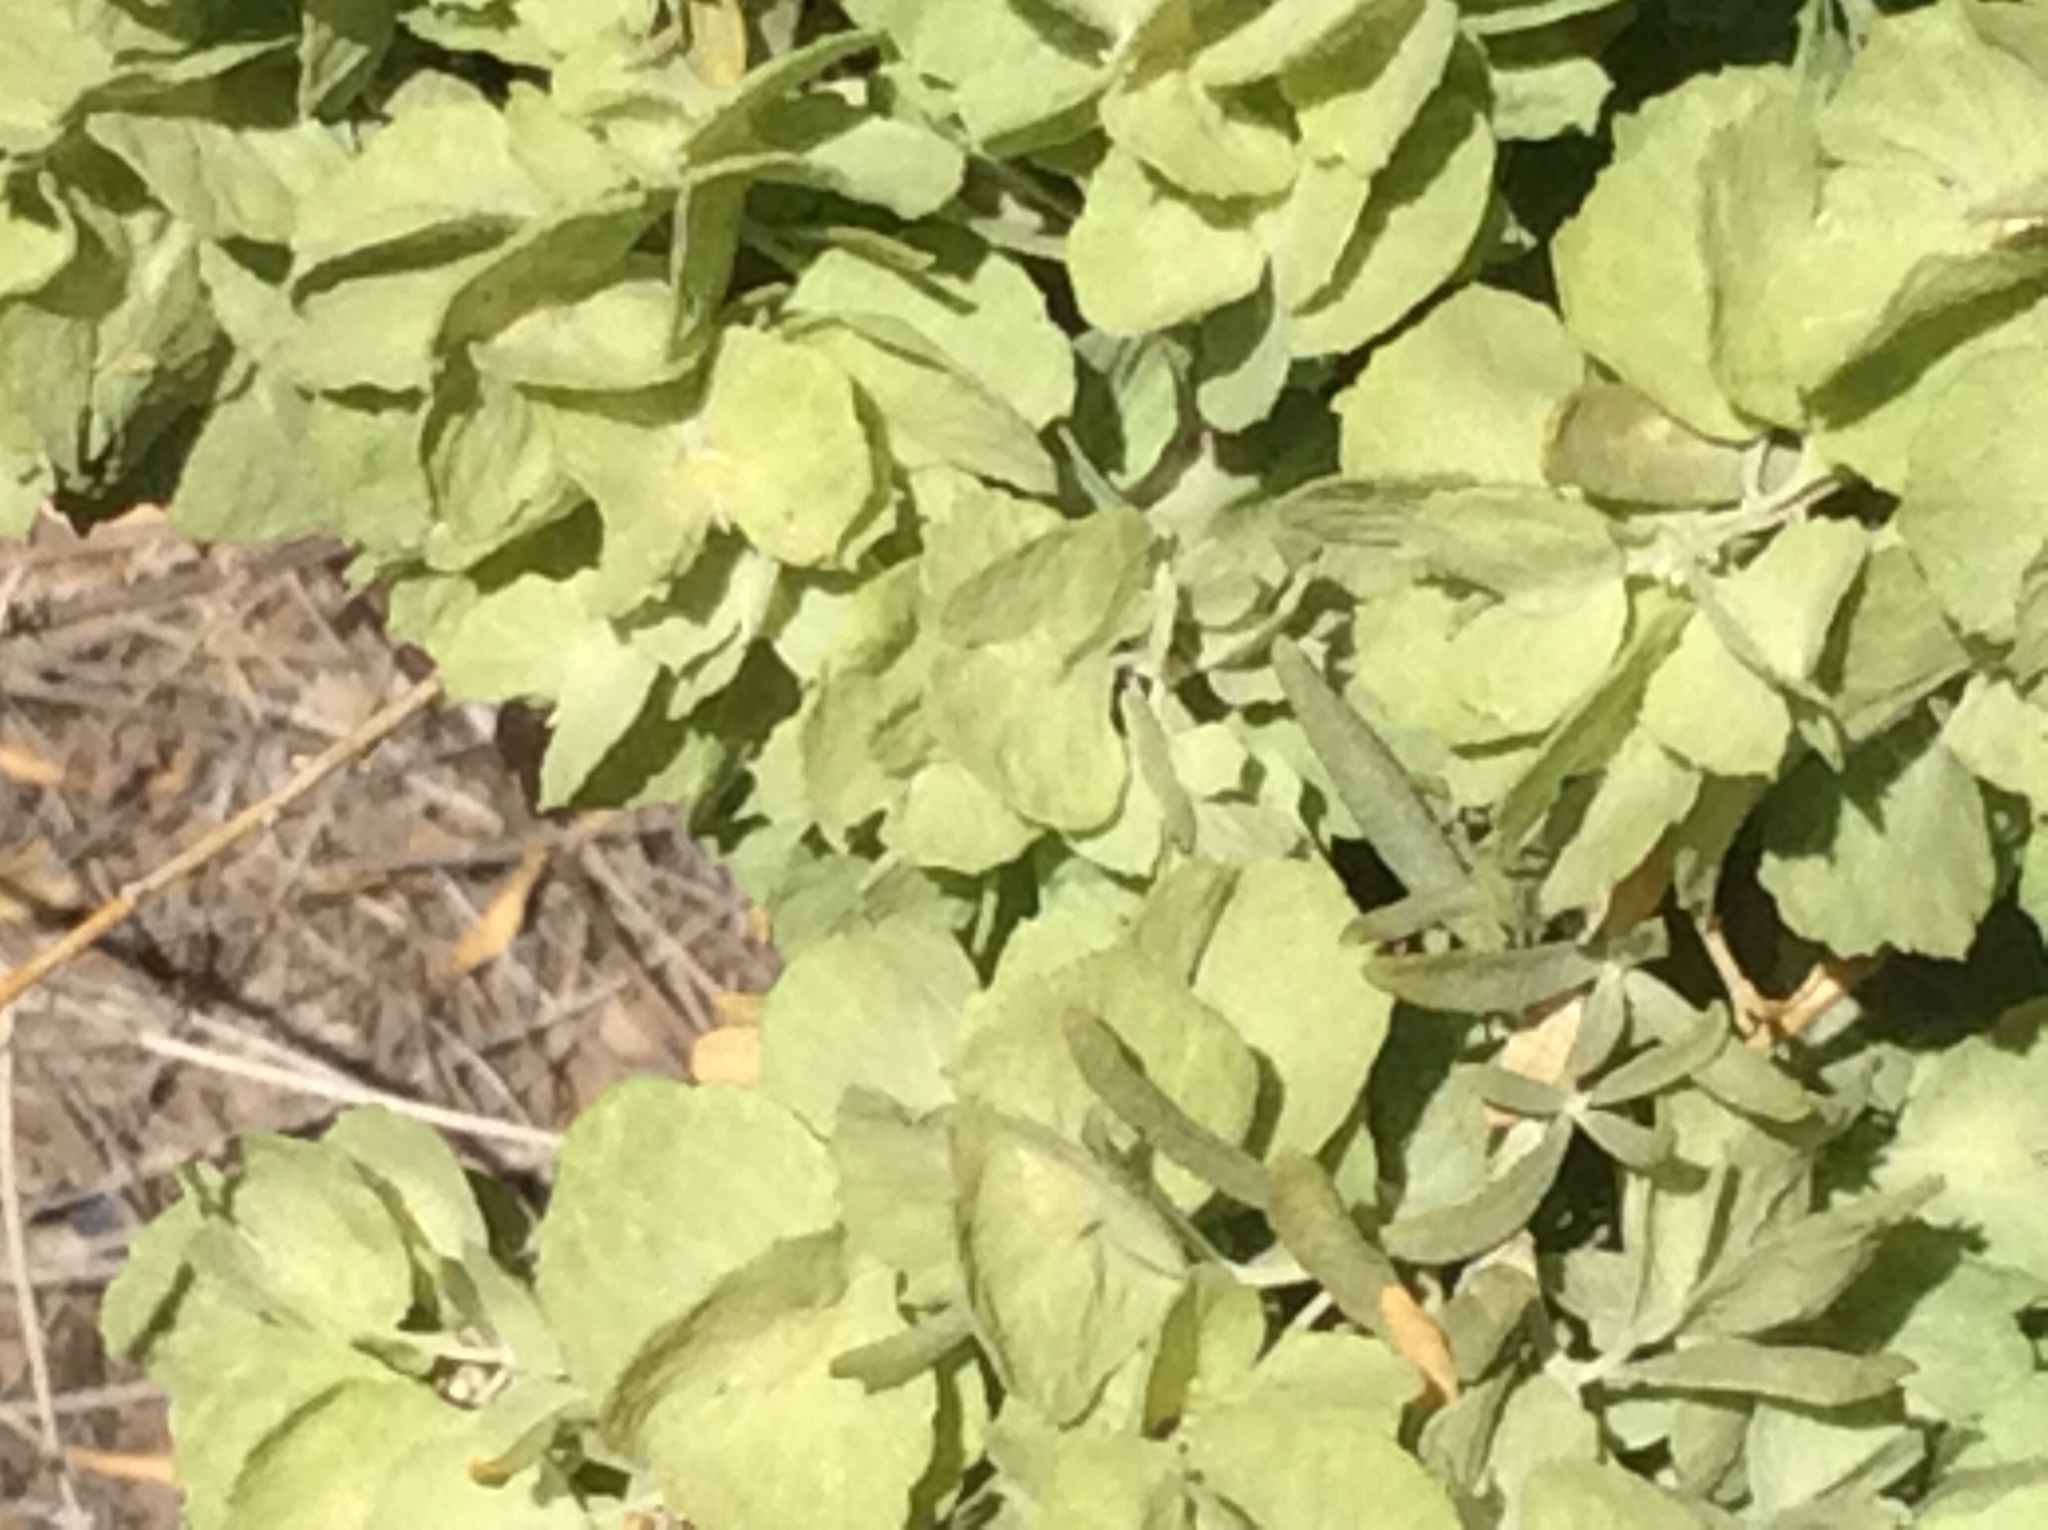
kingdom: Plantae
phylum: Tracheophyta
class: Magnoliopsida
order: Caryophyllales
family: Amaranthaceae
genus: Atriplex
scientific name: Atriplex canescens
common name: Four-wing saltbush
